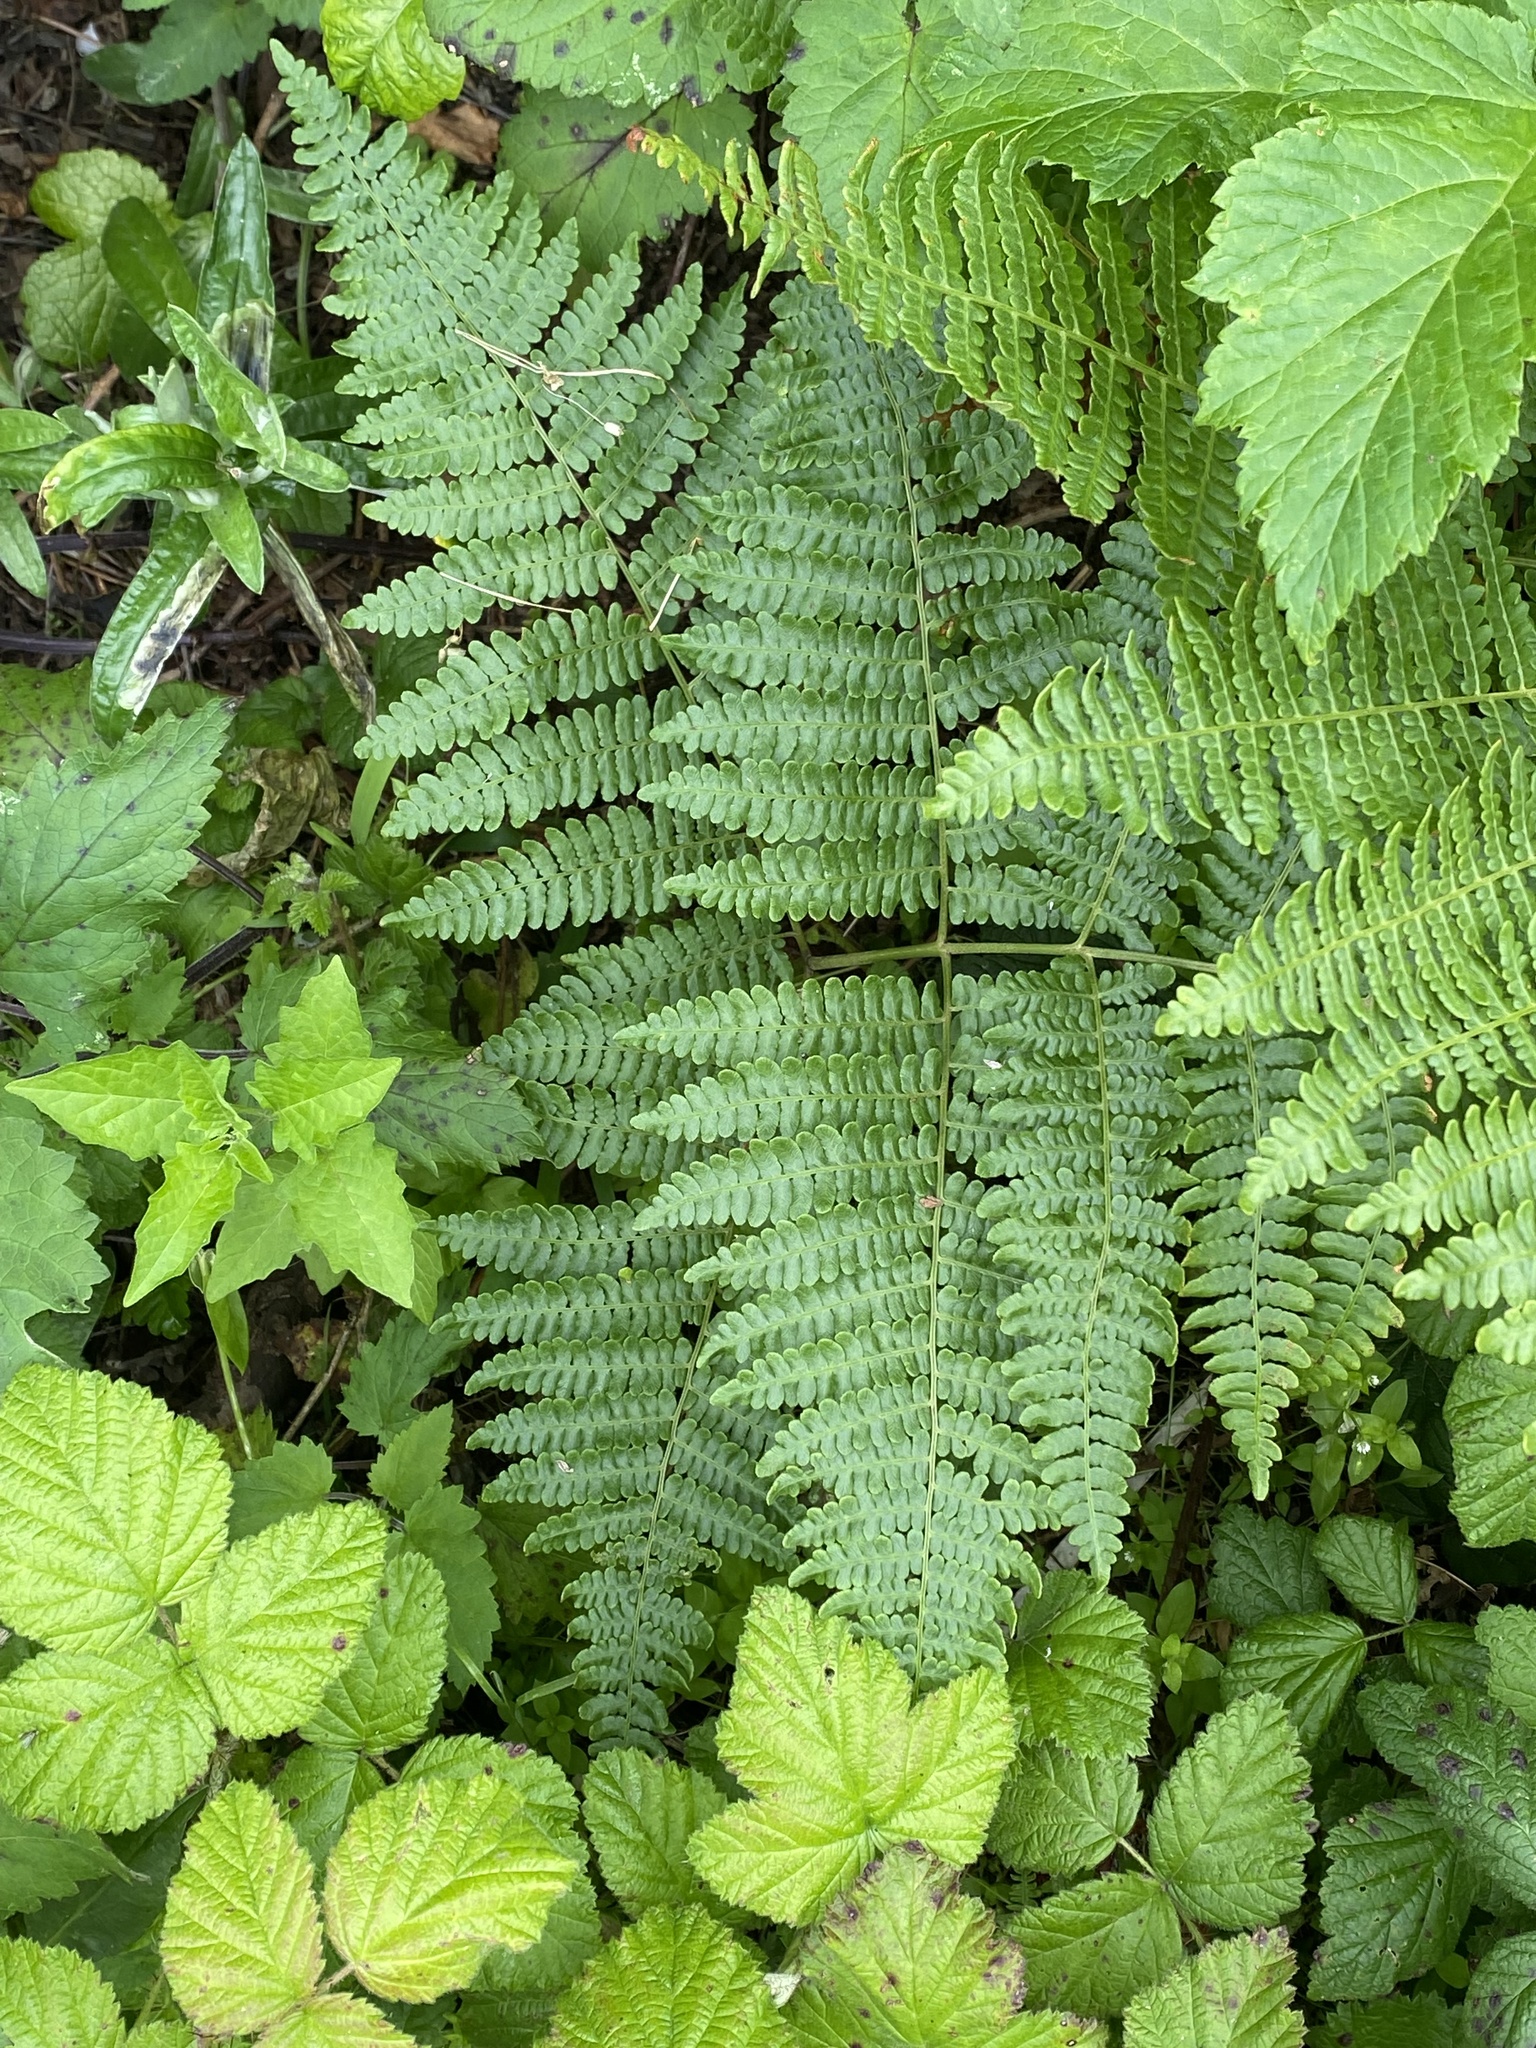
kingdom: Plantae
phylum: Tracheophyta
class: Polypodiopsida
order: Polypodiales
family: Dennstaedtiaceae
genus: Pteridium
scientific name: Pteridium aquilinum
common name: Bracken
